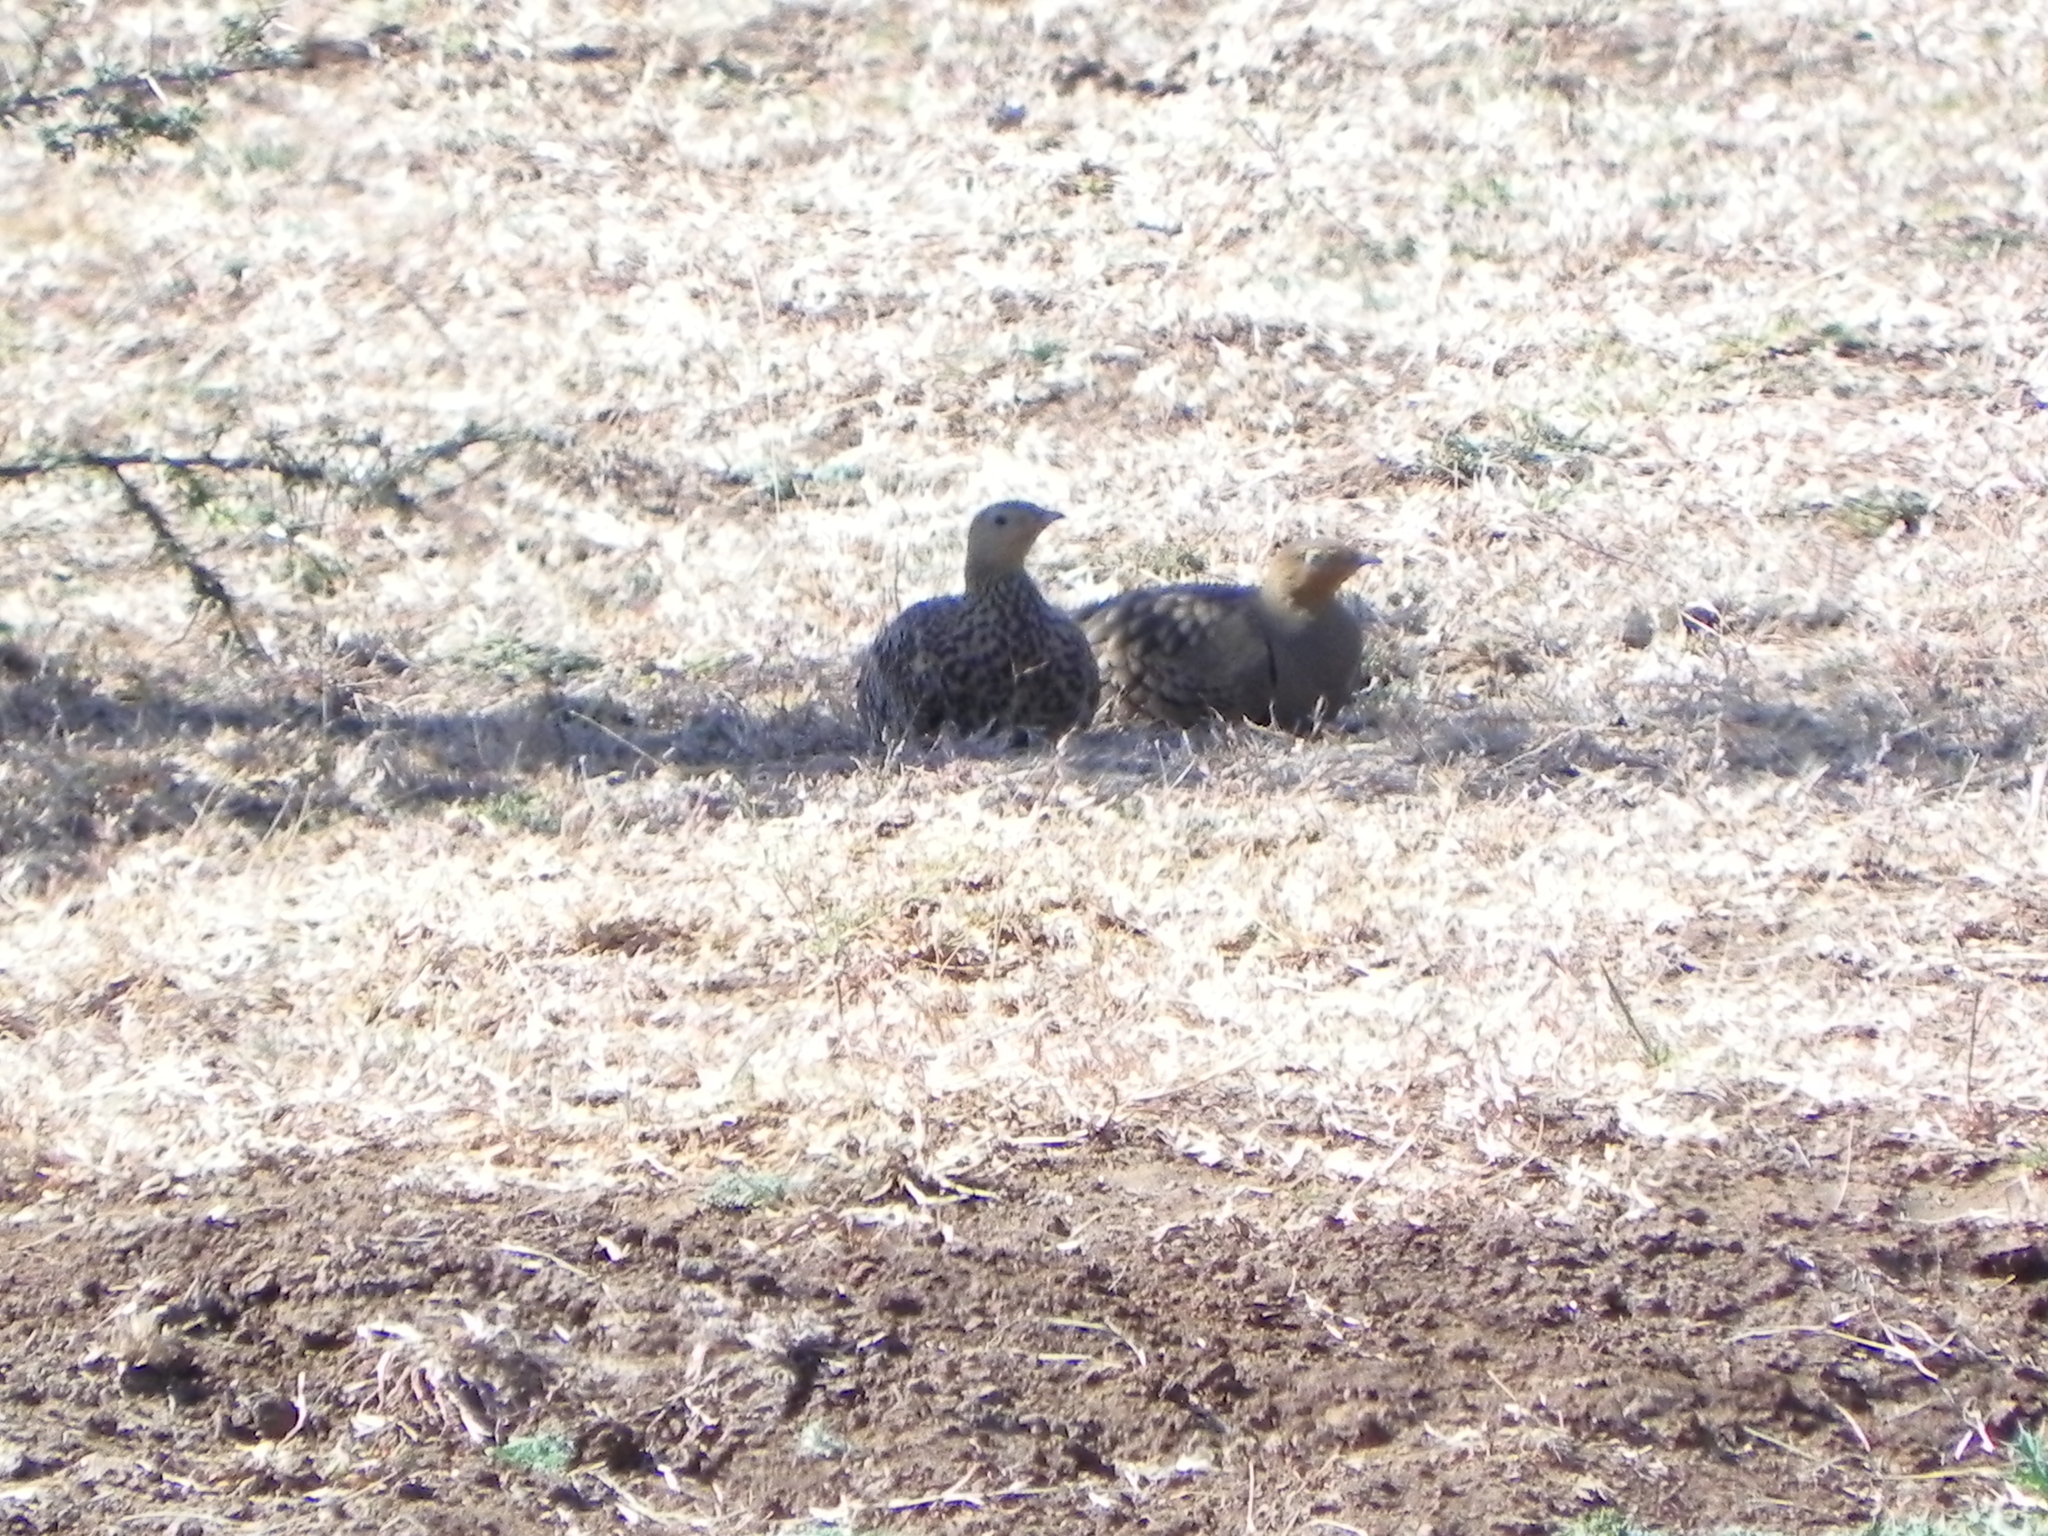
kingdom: Animalia
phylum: Chordata
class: Aves
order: Pteroclidiformes
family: Pteroclididae
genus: Pterocles
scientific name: Pterocles exustus
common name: Chestnut-bellied sandgrouse
